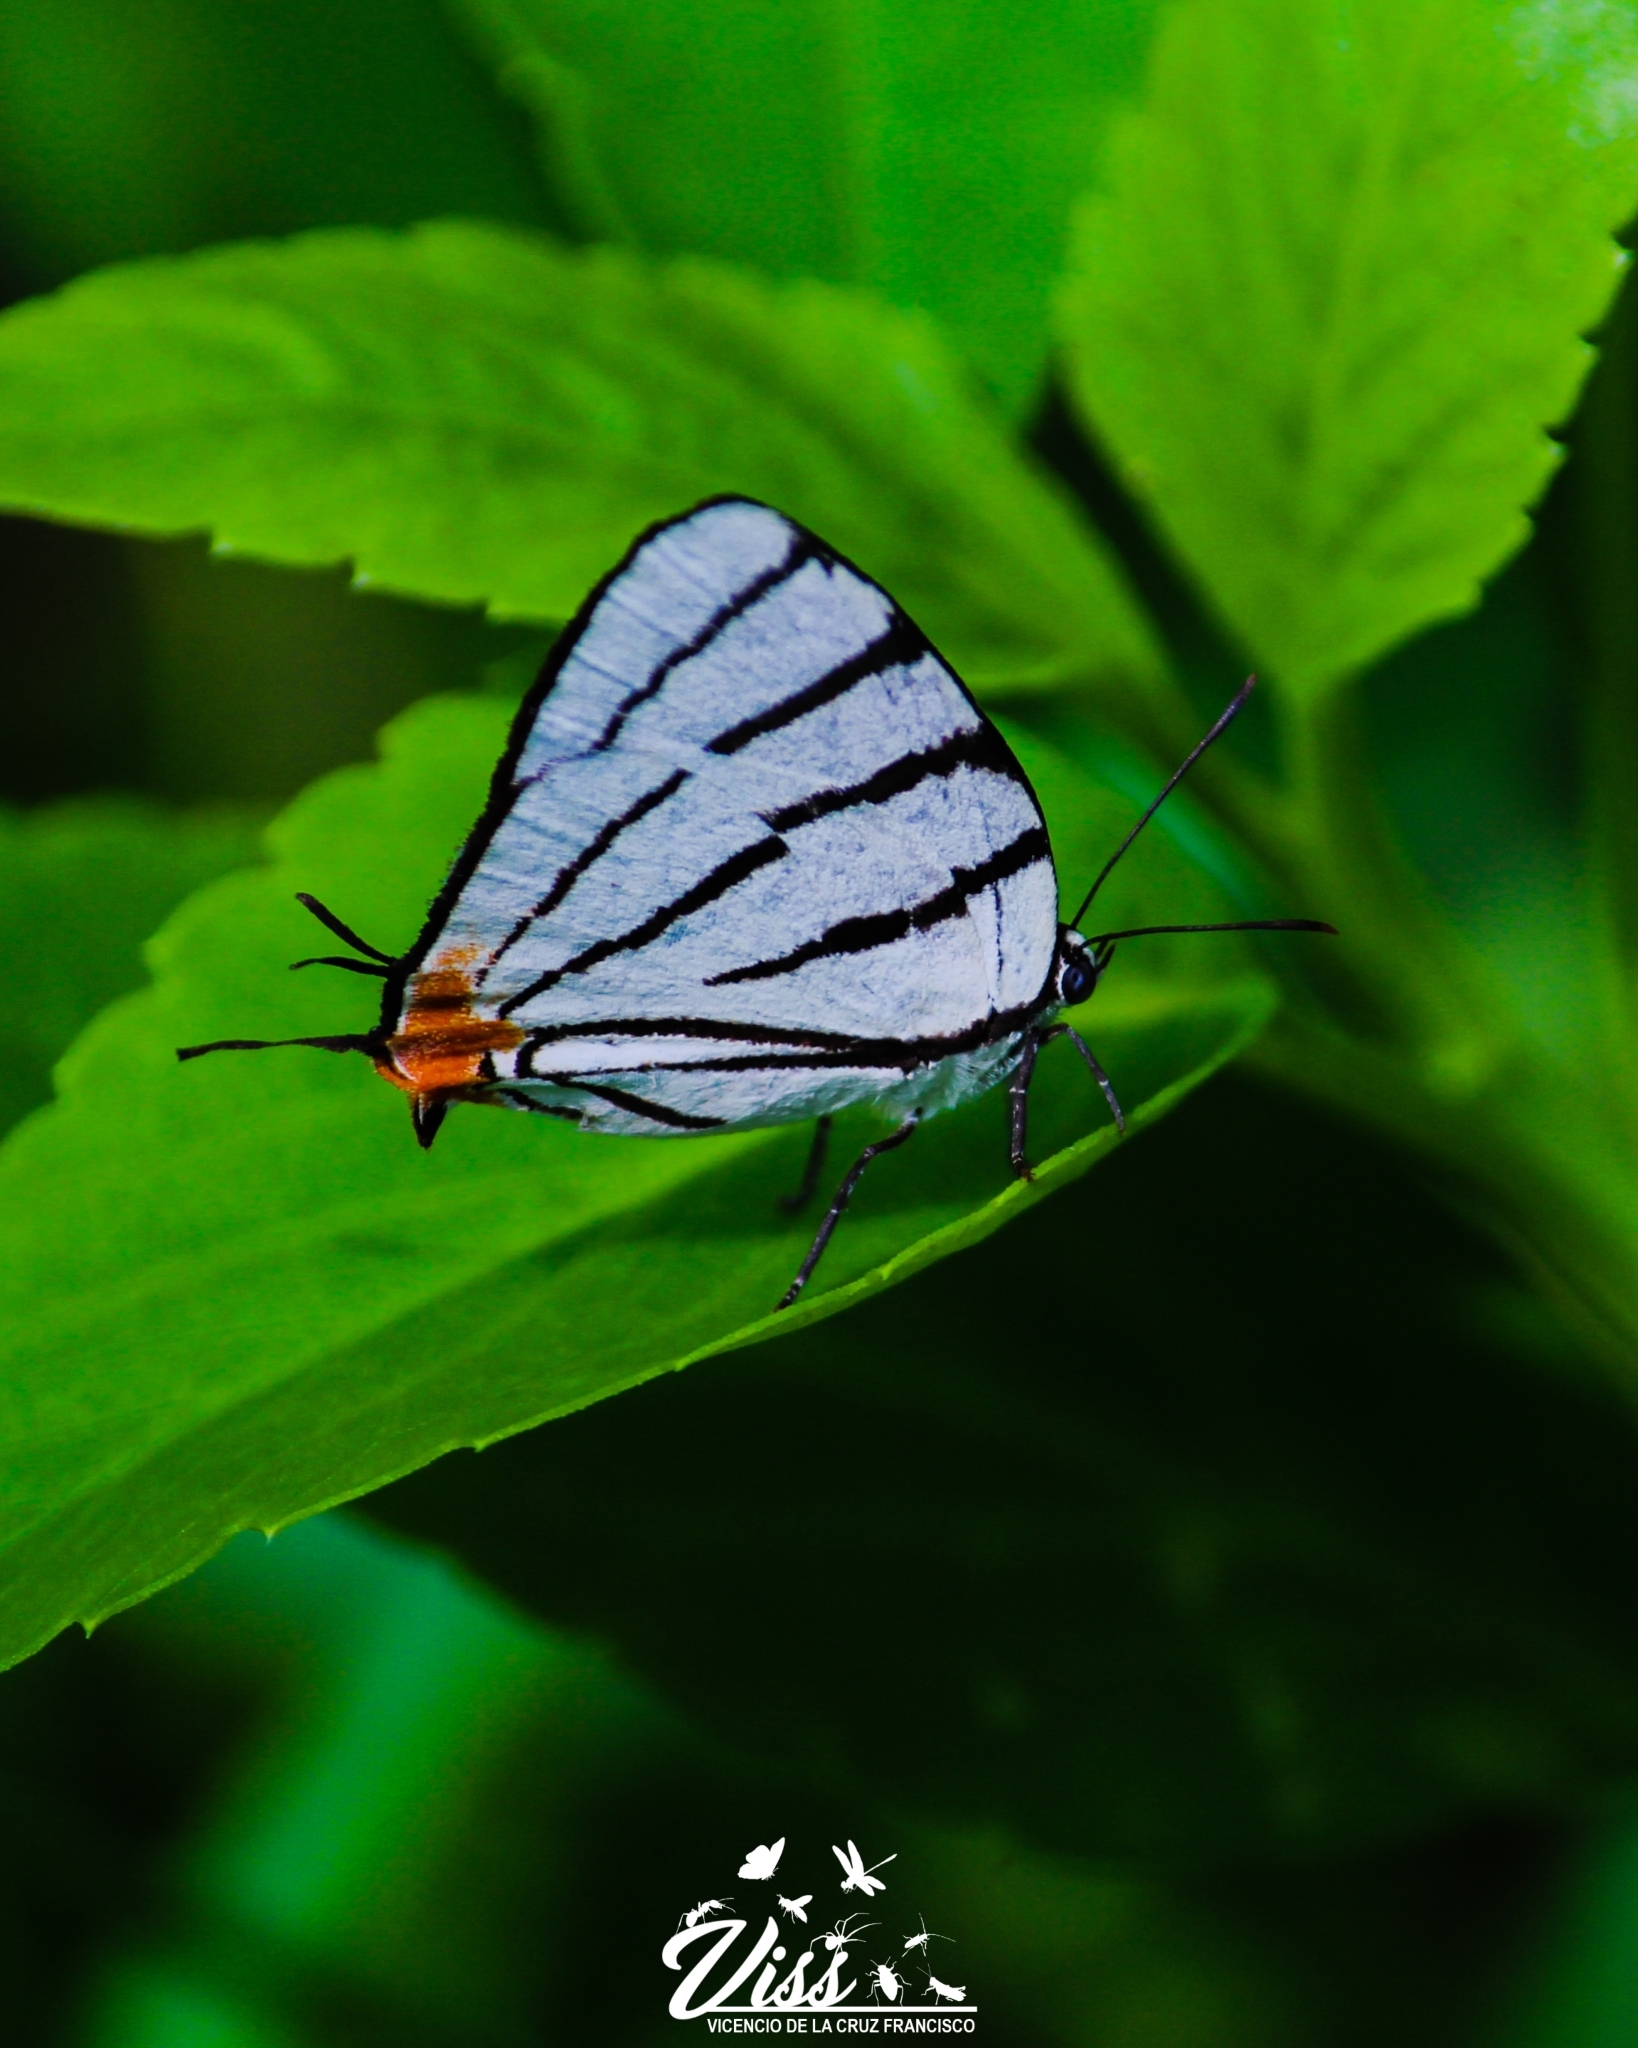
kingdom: Animalia
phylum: Arthropoda
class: Insecta
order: Lepidoptera
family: Lycaenidae
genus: Arawacus
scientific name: Arawacus sito
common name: Fine-lined hairstreak
